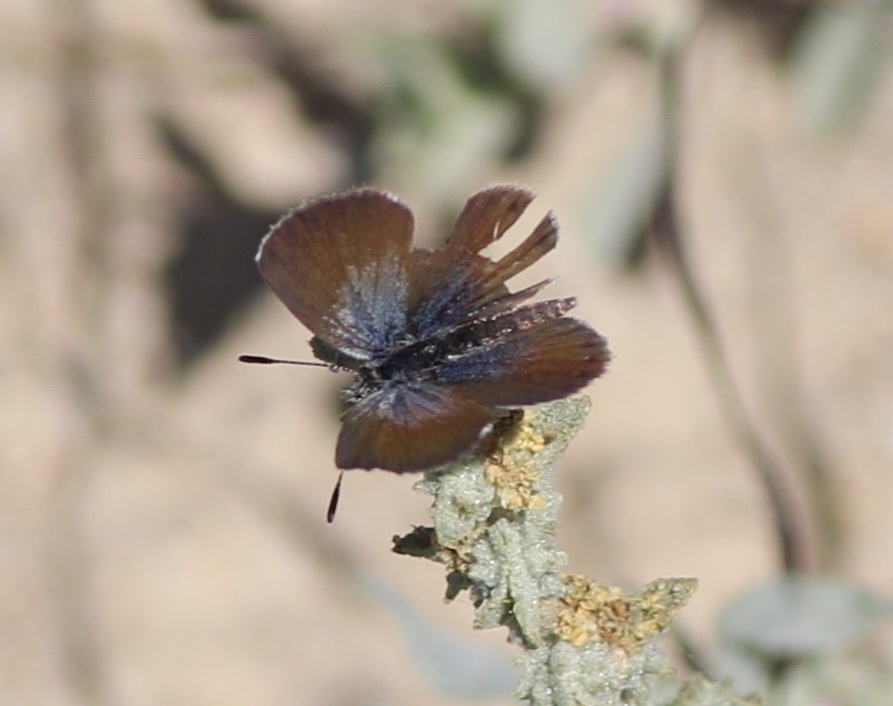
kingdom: Animalia
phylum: Arthropoda
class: Insecta
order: Lepidoptera
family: Lycaenidae
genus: Brephidium
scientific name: Brephidium exilis
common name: Pygmy blue
